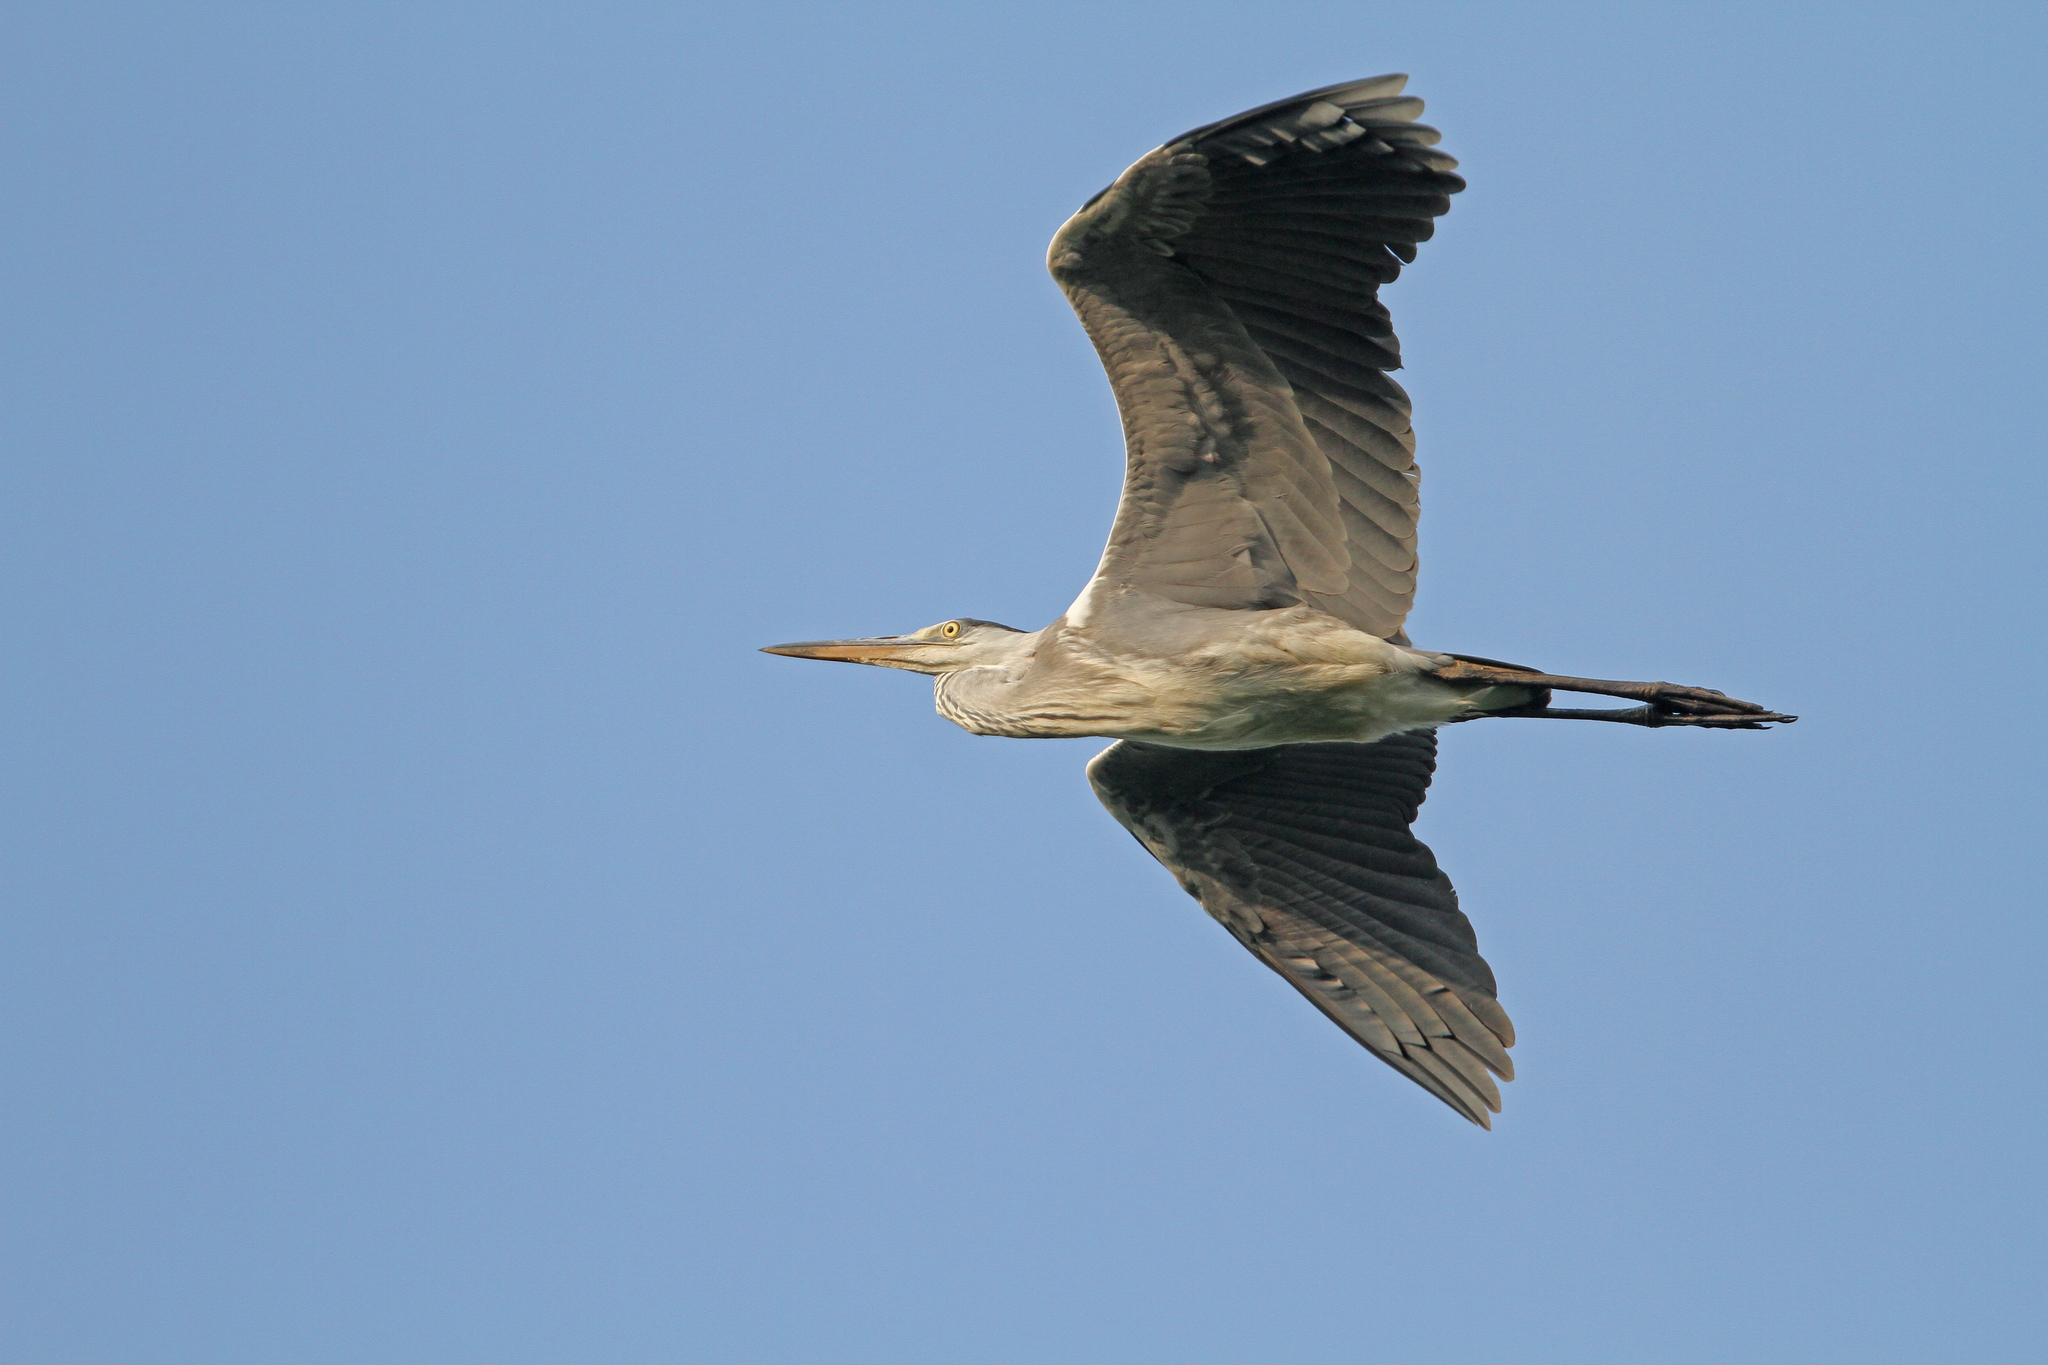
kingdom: Animalia
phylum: Chordata
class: Aves
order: Pelecaniformes
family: Ardeidae
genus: Ardea
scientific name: Ardea cinerea
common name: Grey heron
